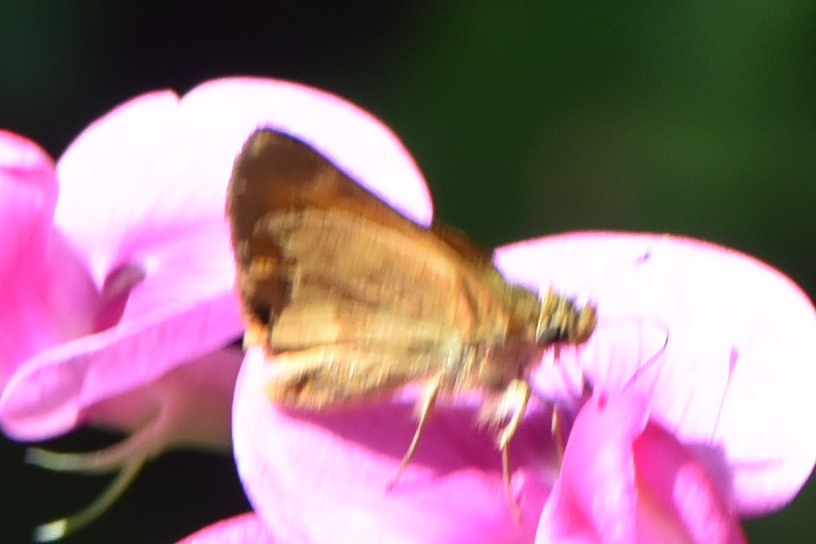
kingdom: Animalia
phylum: Arthropoda
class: Insecta
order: Lepidoptera
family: Hesperiidae
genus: Ochlodes
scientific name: Ochlodes sylvanoides
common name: Woodland skipper
